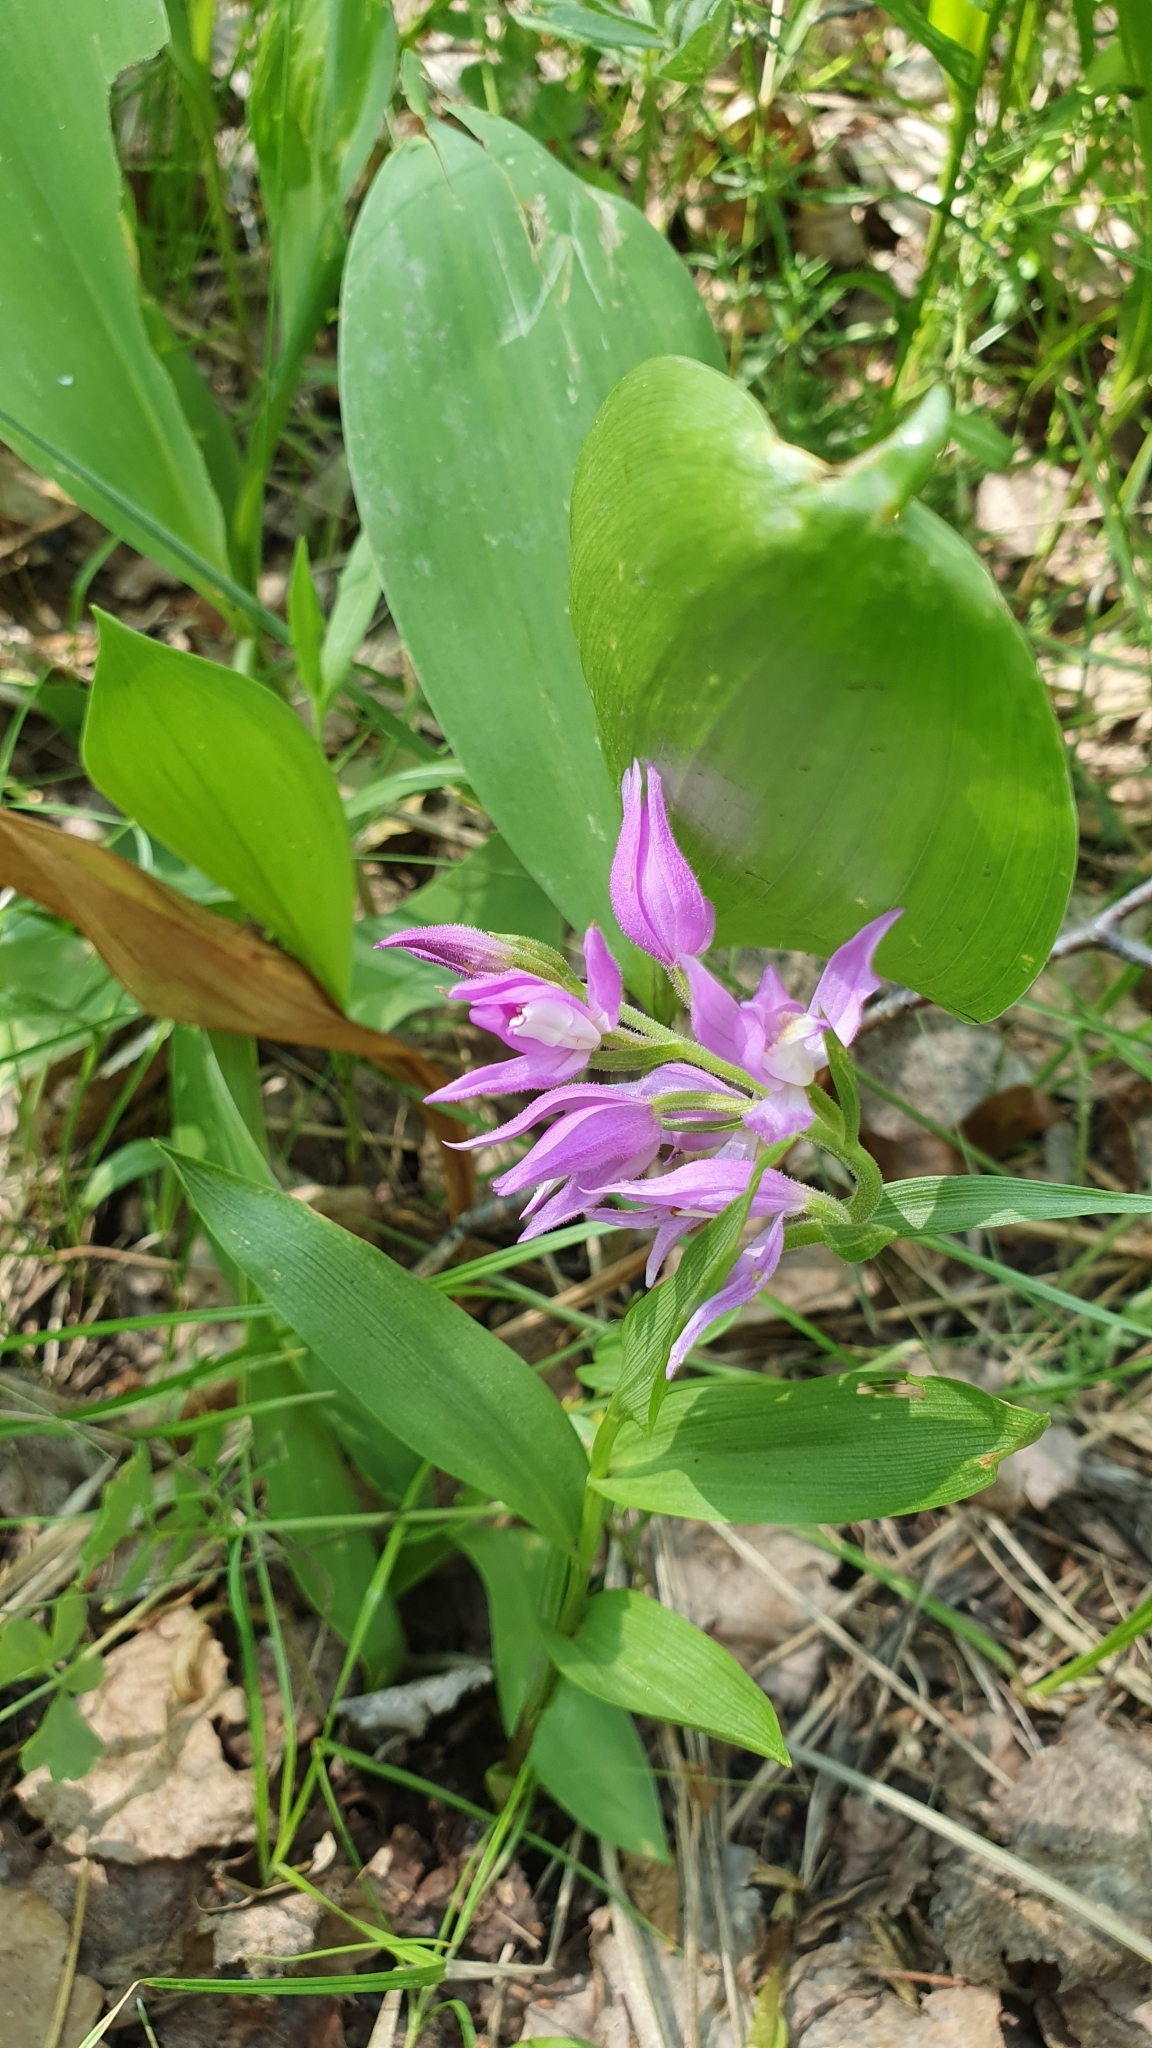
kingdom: Plantae
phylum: Tracheophyta
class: Liliopsida
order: Asparagales
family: Orchidaceae
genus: Cephalanthera
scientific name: Cephalanthera rubra
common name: Red helleborine
